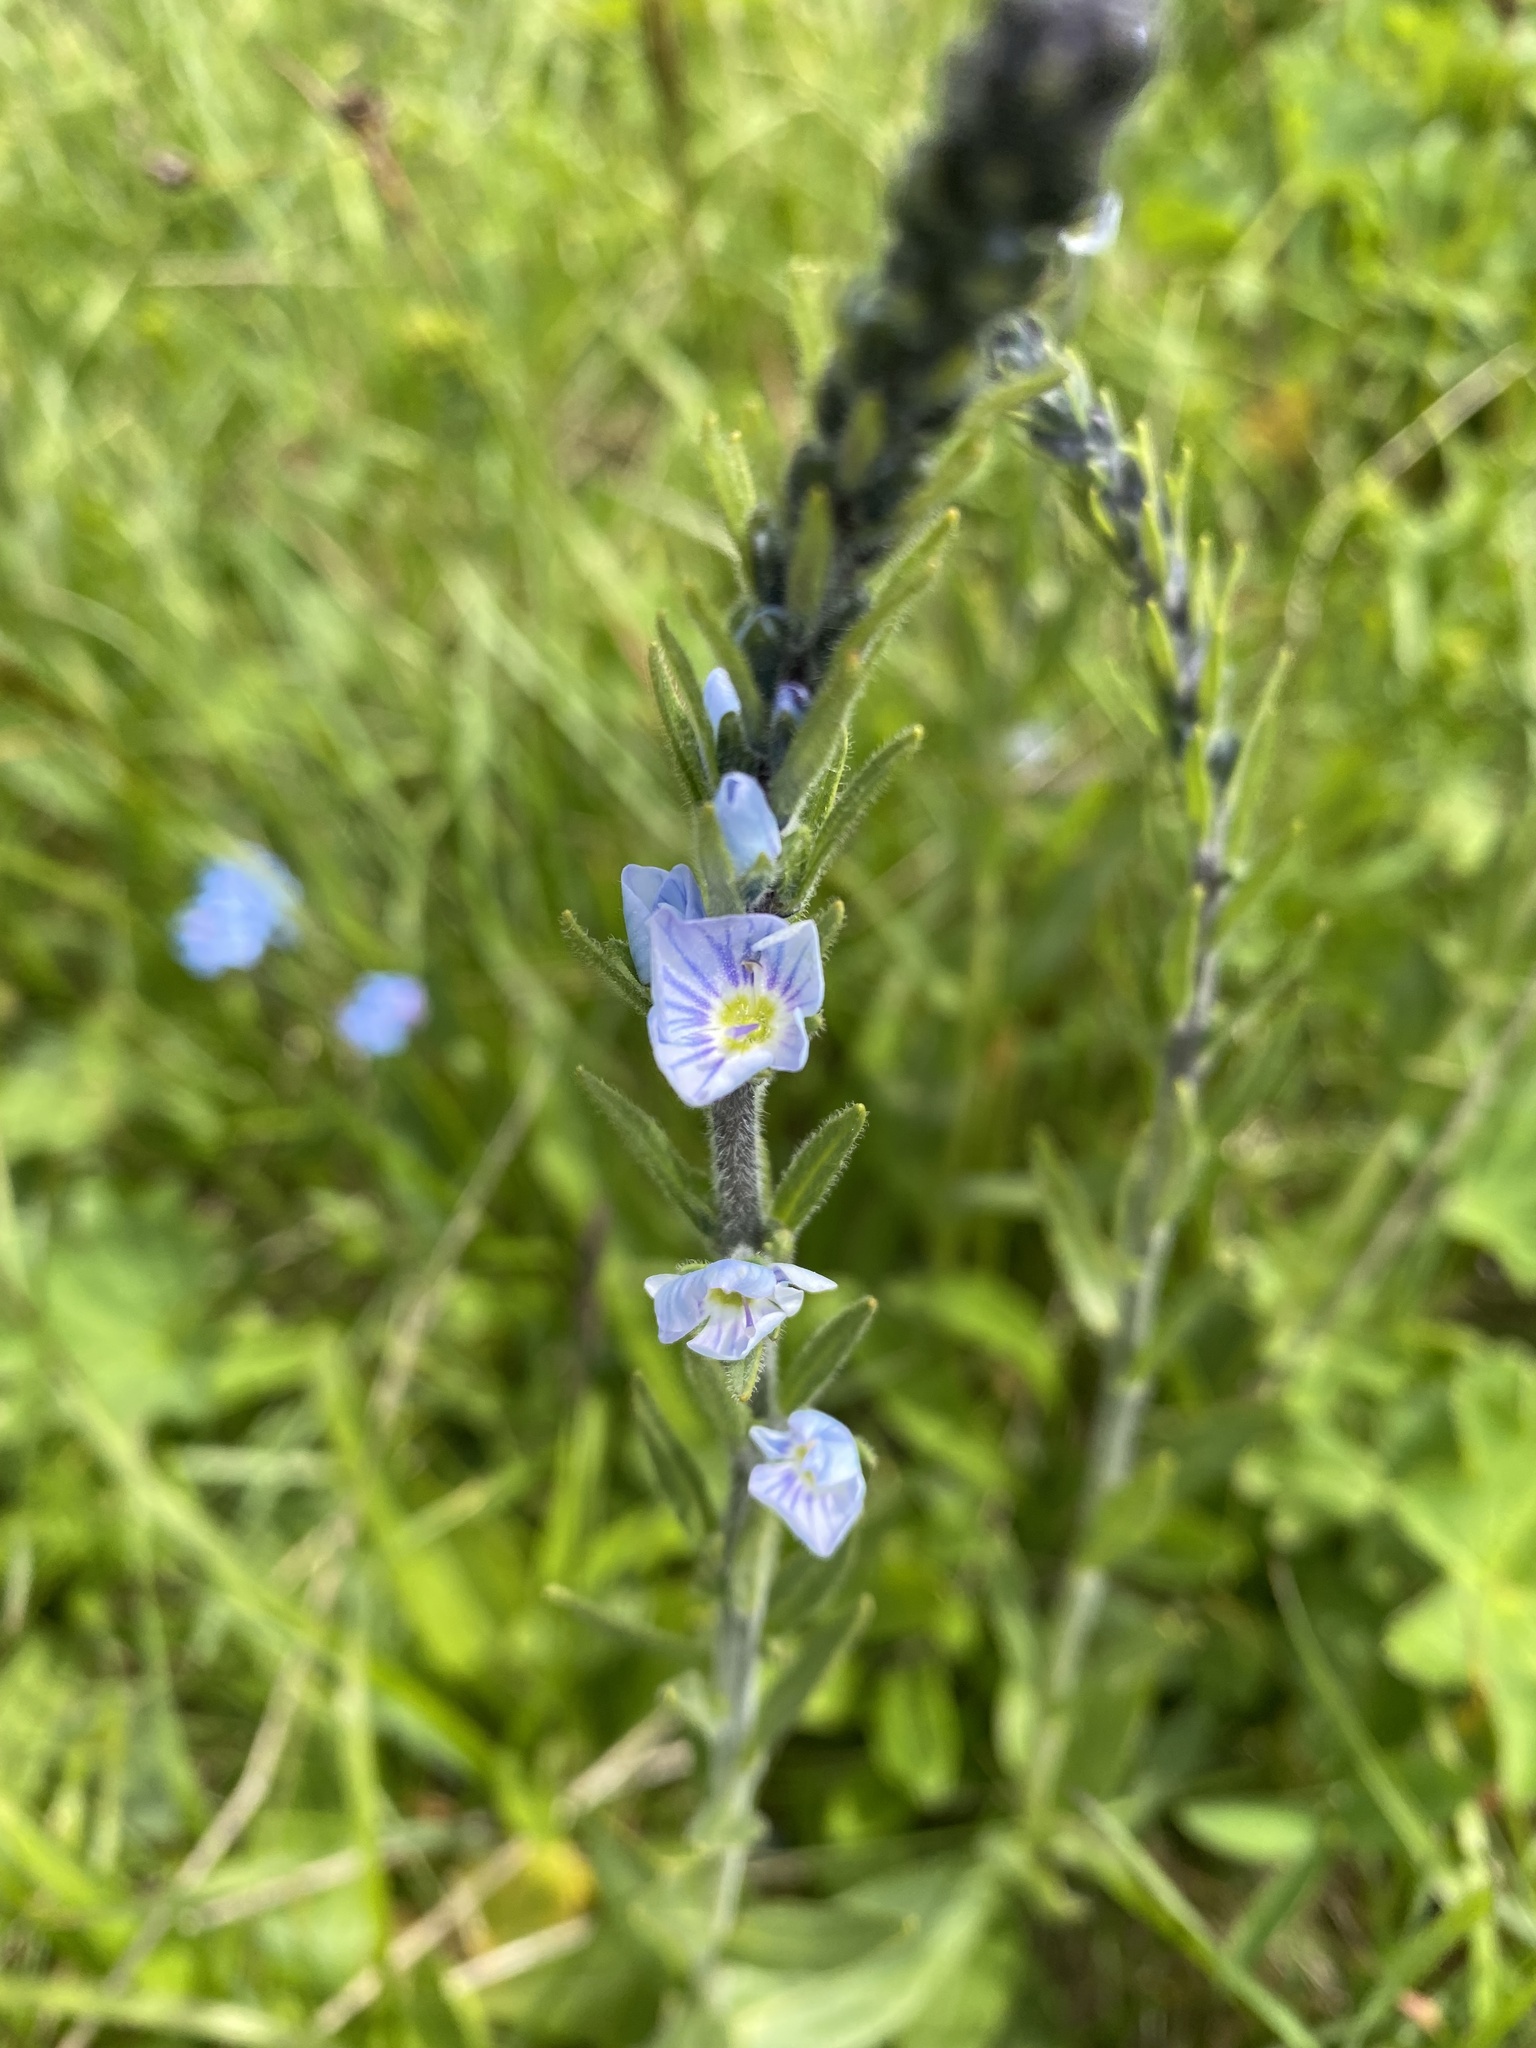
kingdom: Plantae
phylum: Tracheophyta
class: Magnoliopsida
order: Lamiales
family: Plantaginaceae
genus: Veronica
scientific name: Veronica gentianoides
